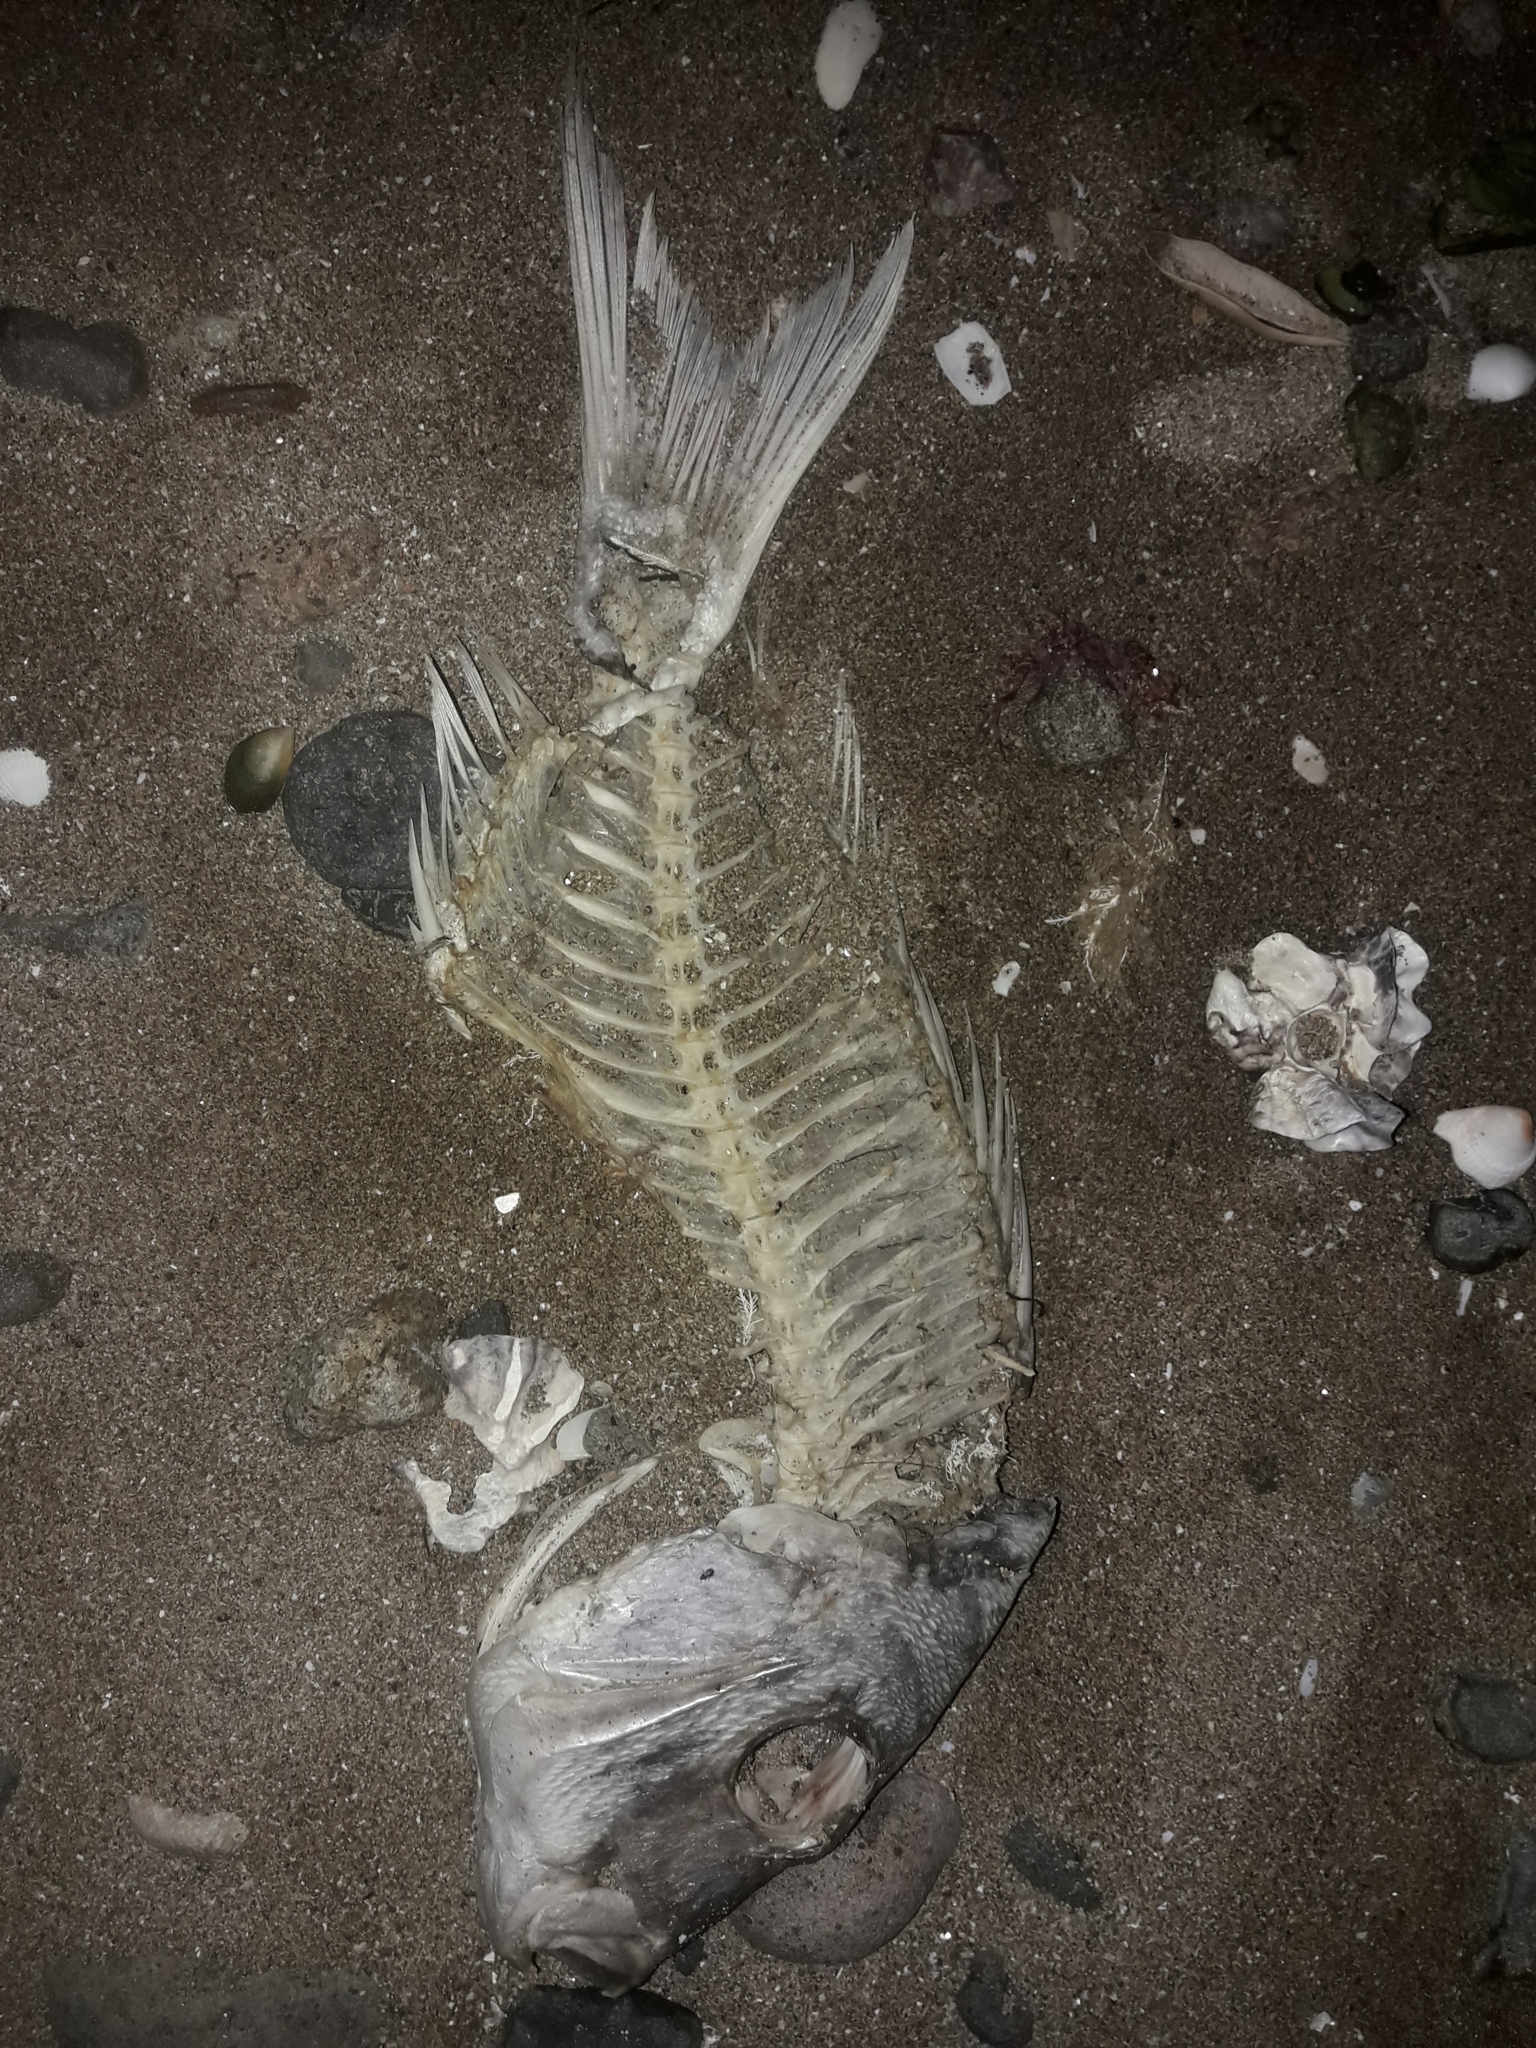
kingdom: Animalia
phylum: Chordata
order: Perciformes
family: Sparidae
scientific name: Sparidae
